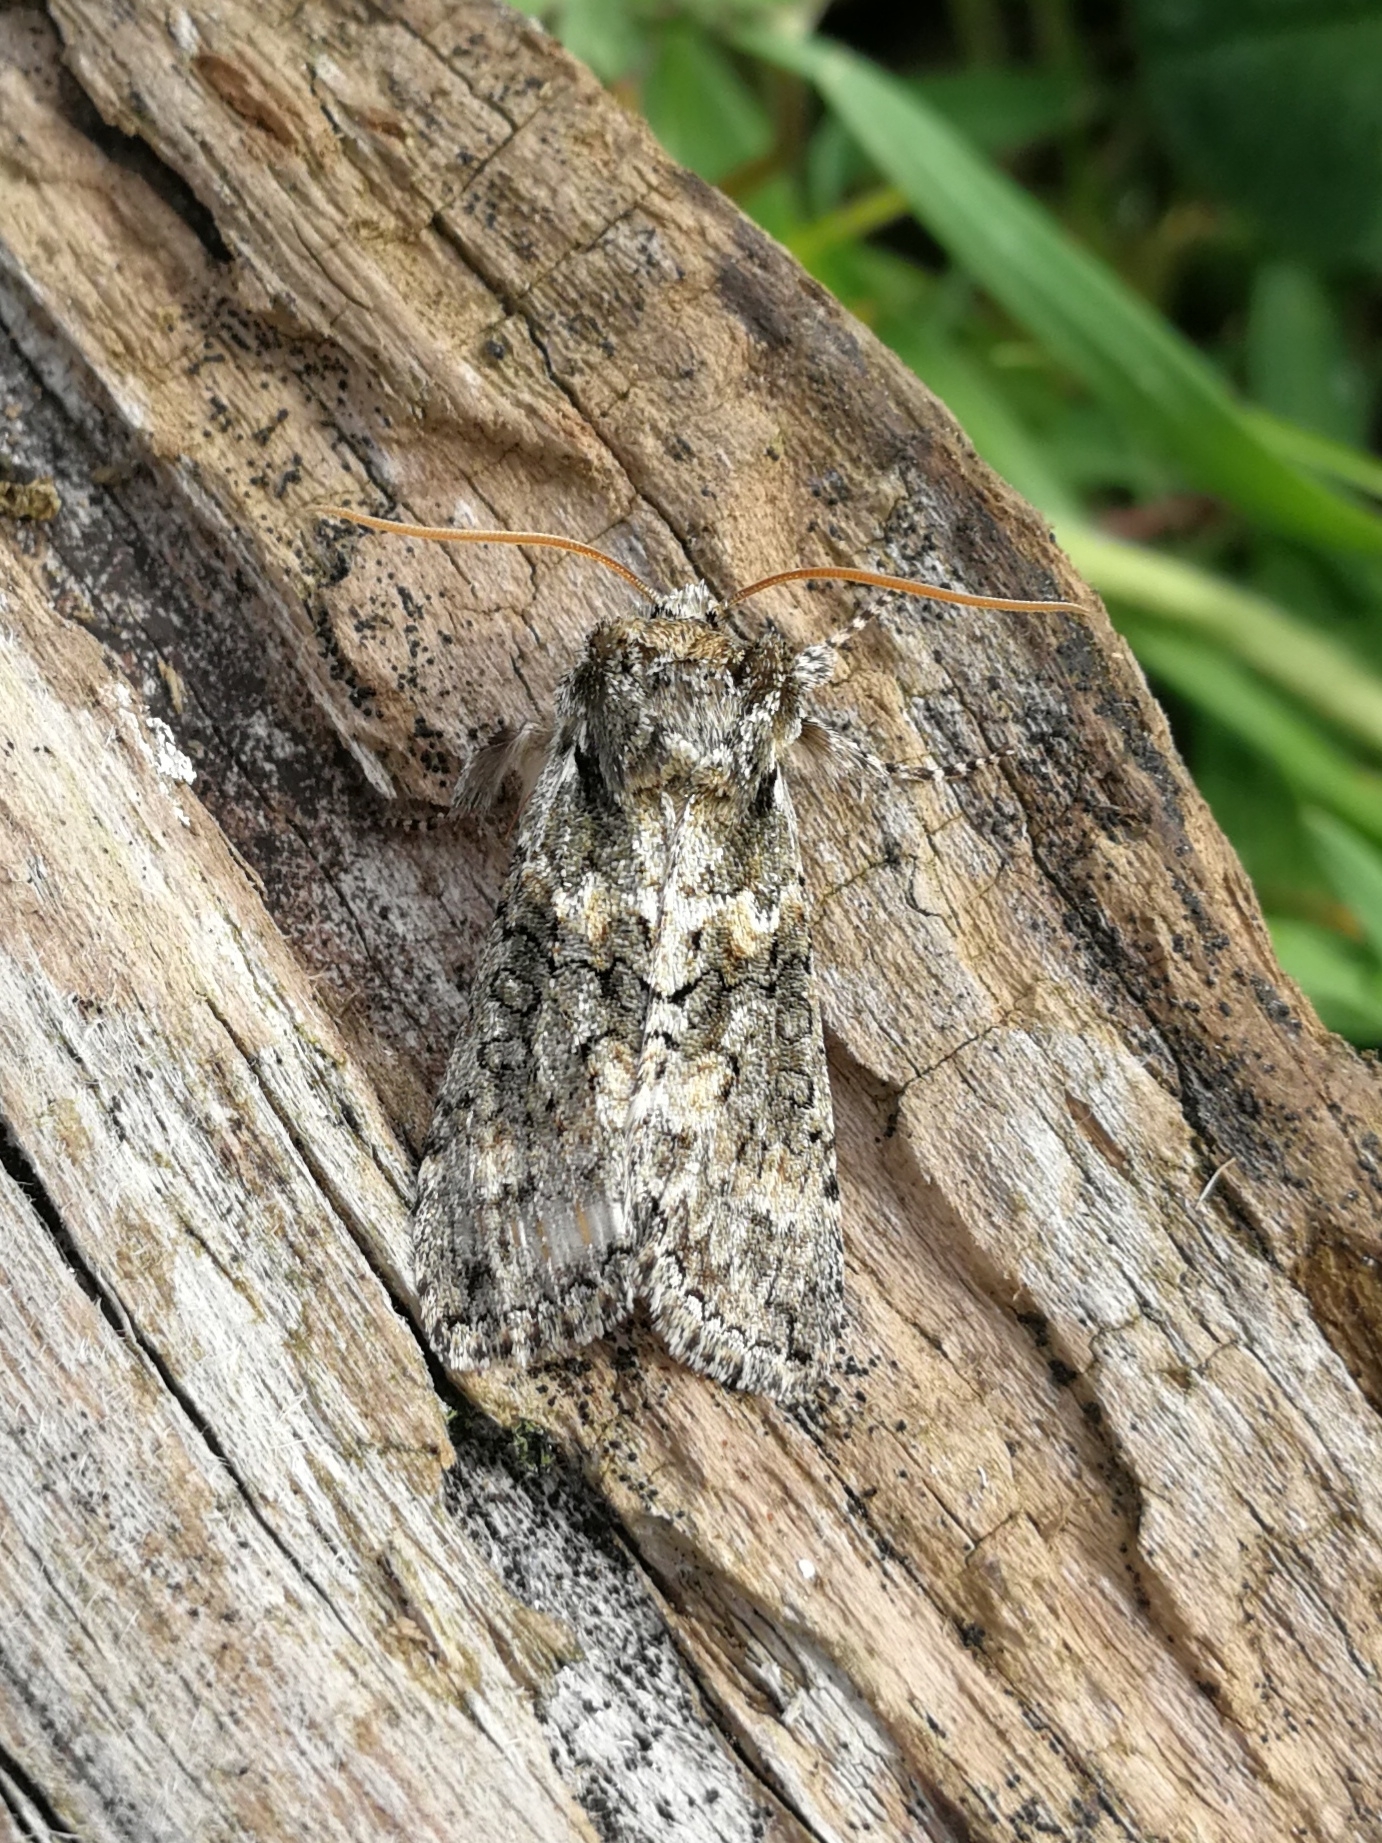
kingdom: Animalia
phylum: Arthropoda
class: Insecta
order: Lepidoptera
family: Drepanidae
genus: Polyploca
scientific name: Polyploca ridens
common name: Frosted green
